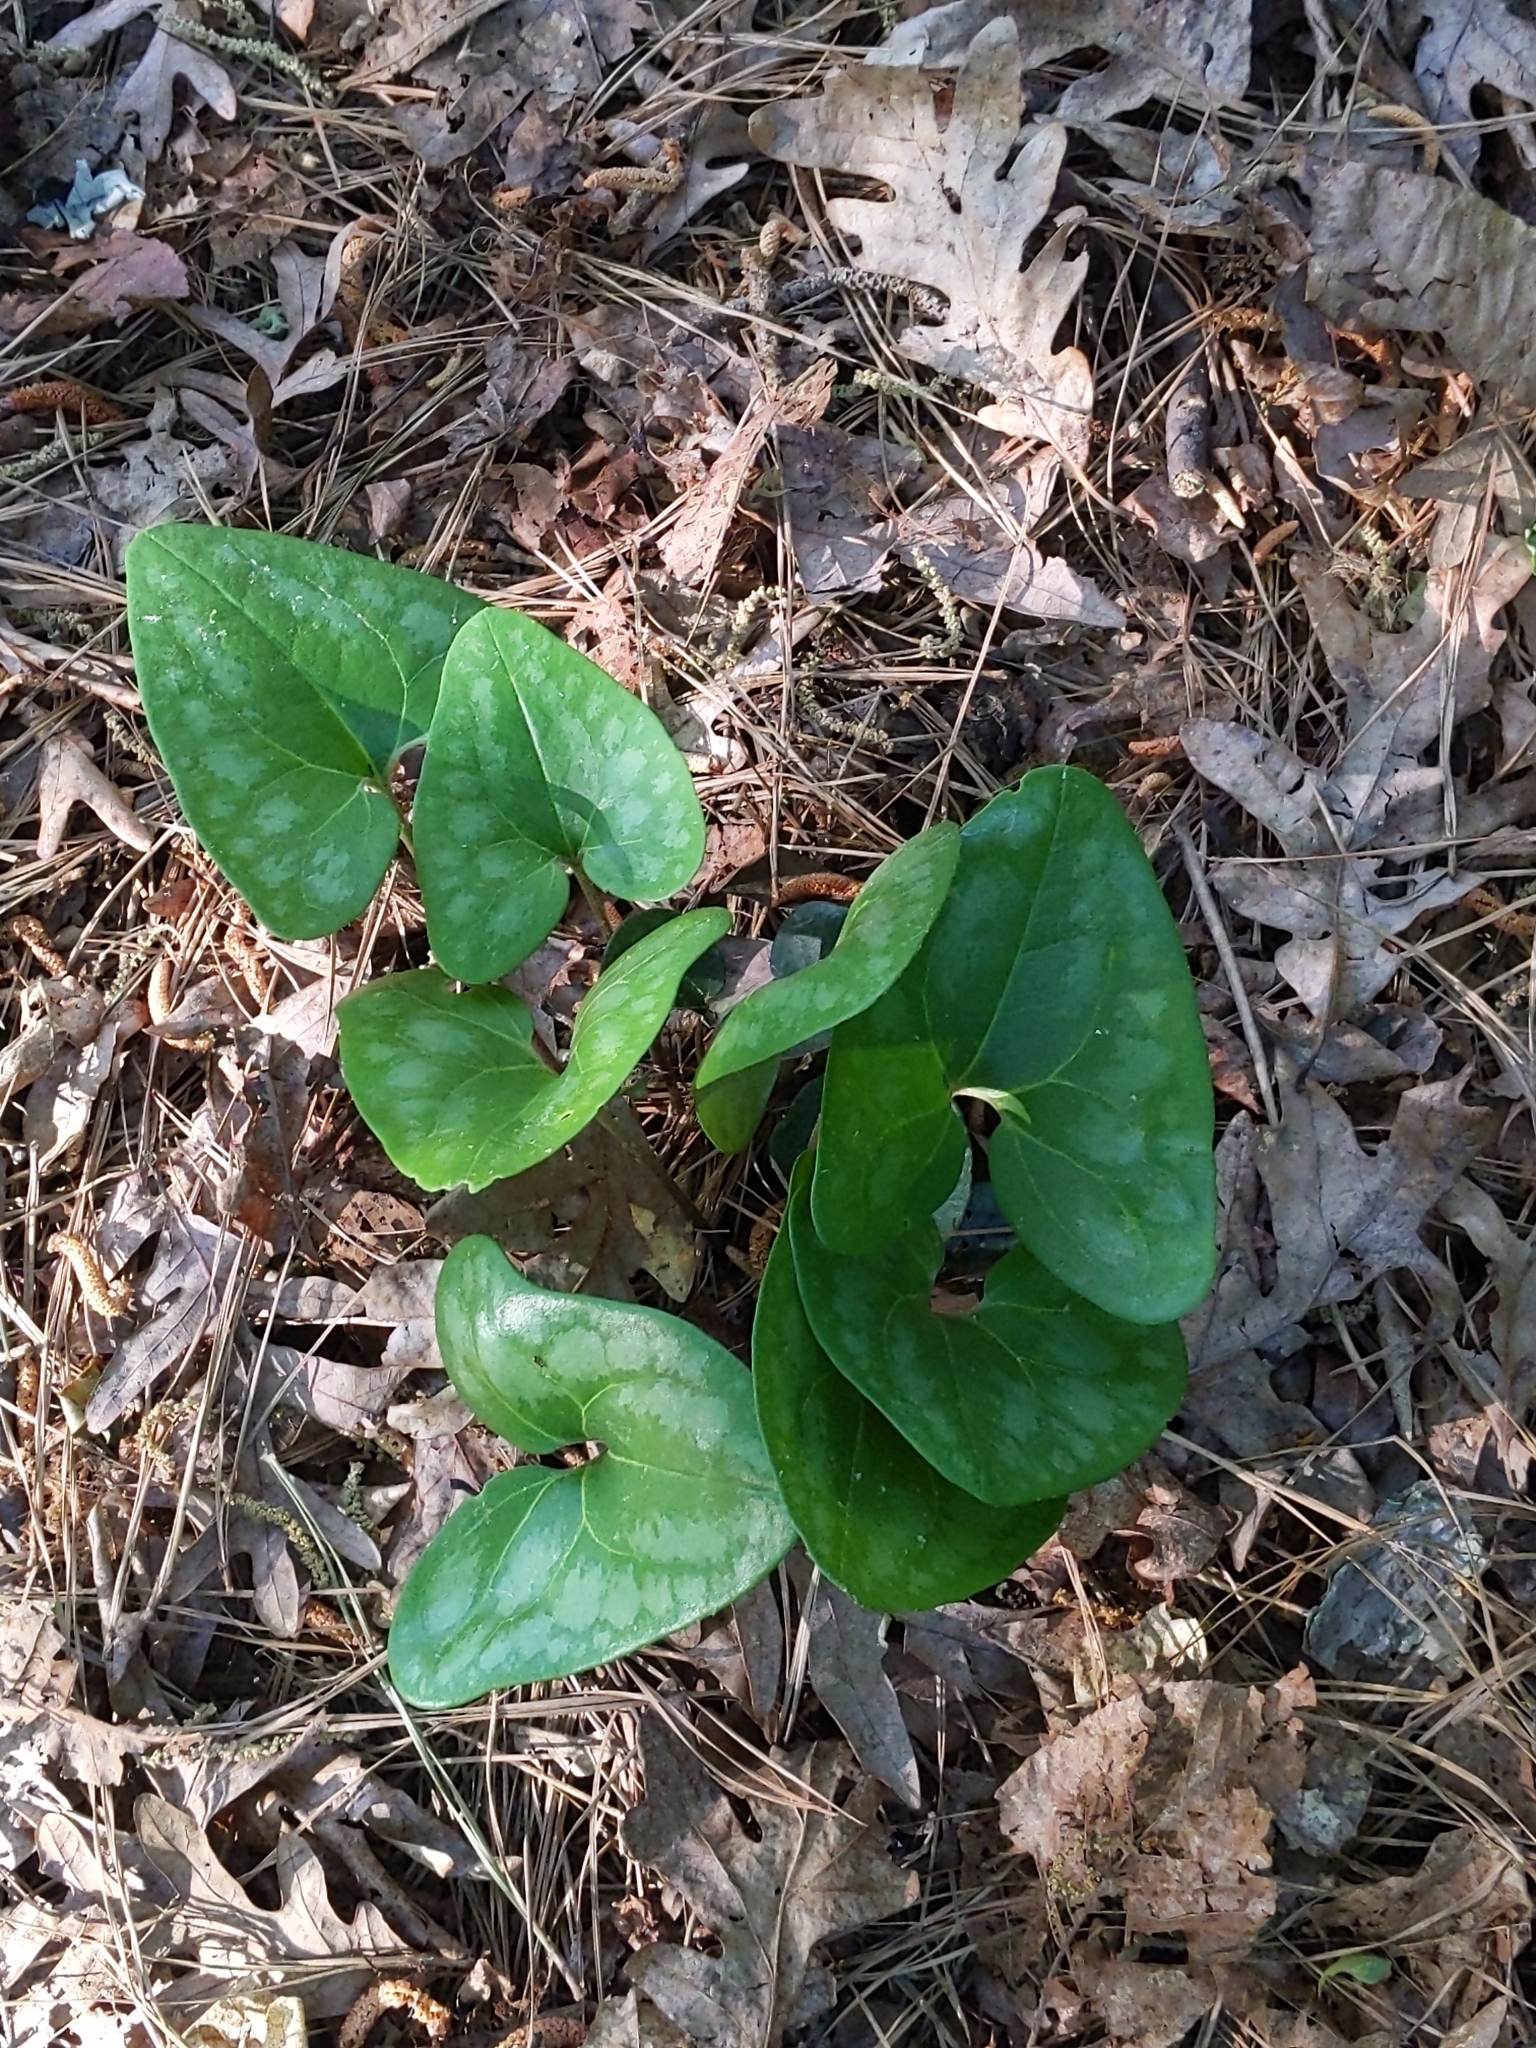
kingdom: Plantae
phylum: Tracheophyta
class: Magnoliopsida
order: Piperales
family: Aristolochiaceae
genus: Hexastylis
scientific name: Hexastylis arifolia
